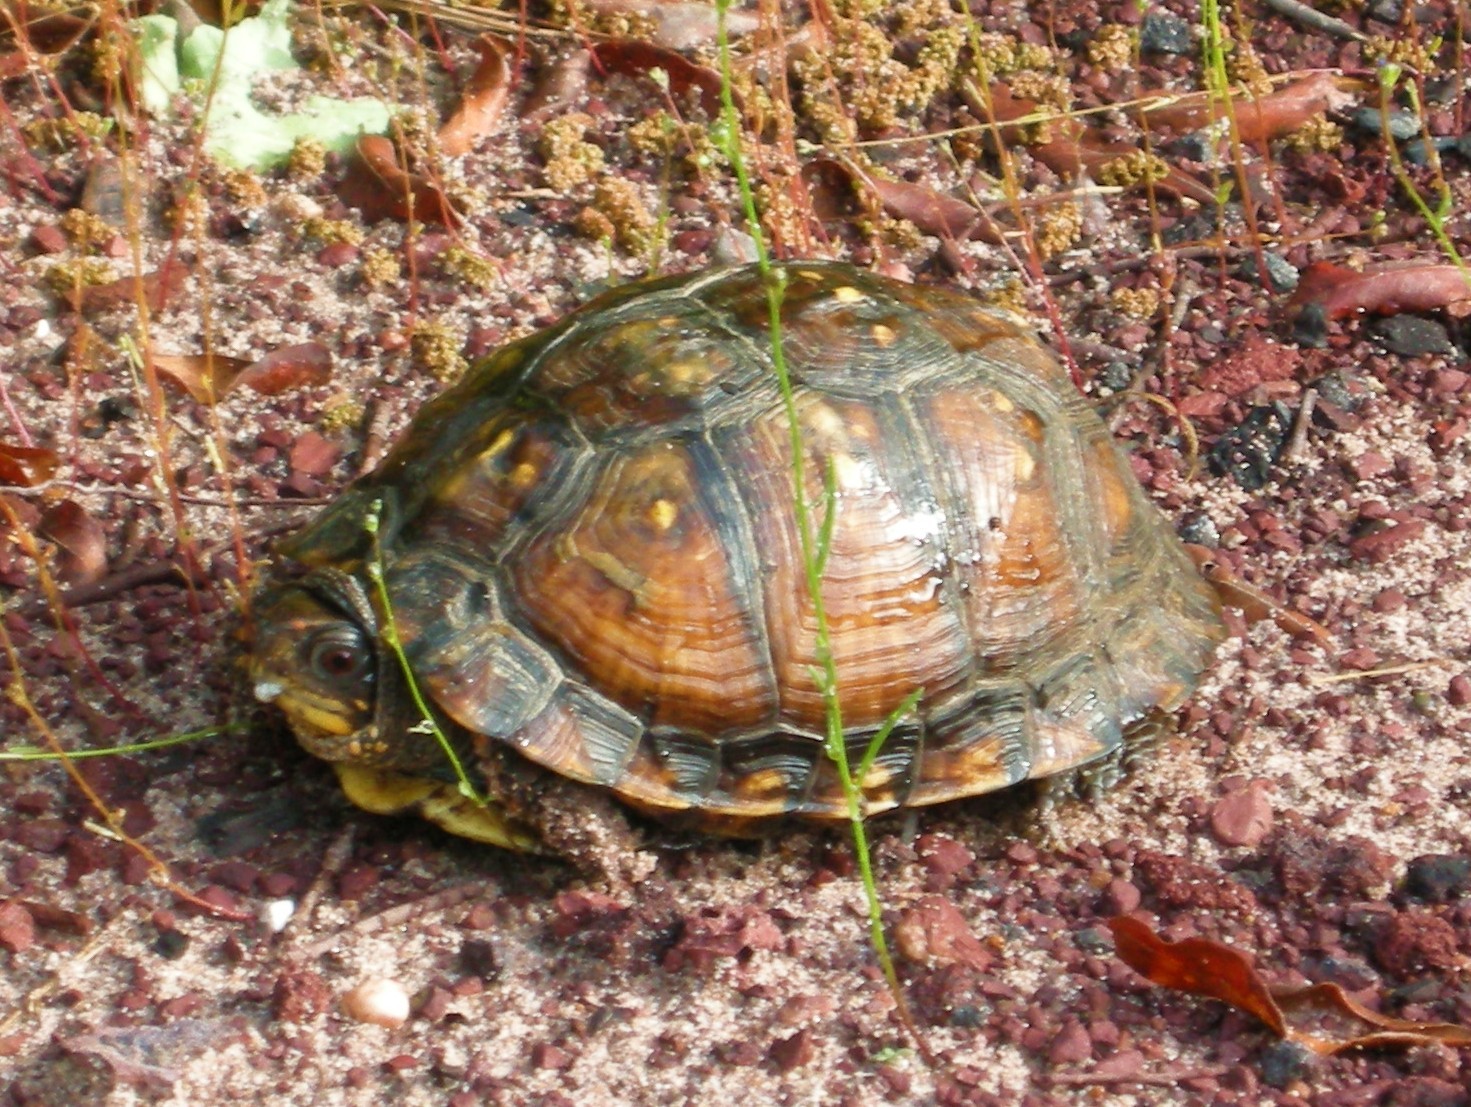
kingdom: Animalia
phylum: Chordata
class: Testudines
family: Emydidae
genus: Terrapene
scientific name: Terrapene carolina
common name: Common box turtle
